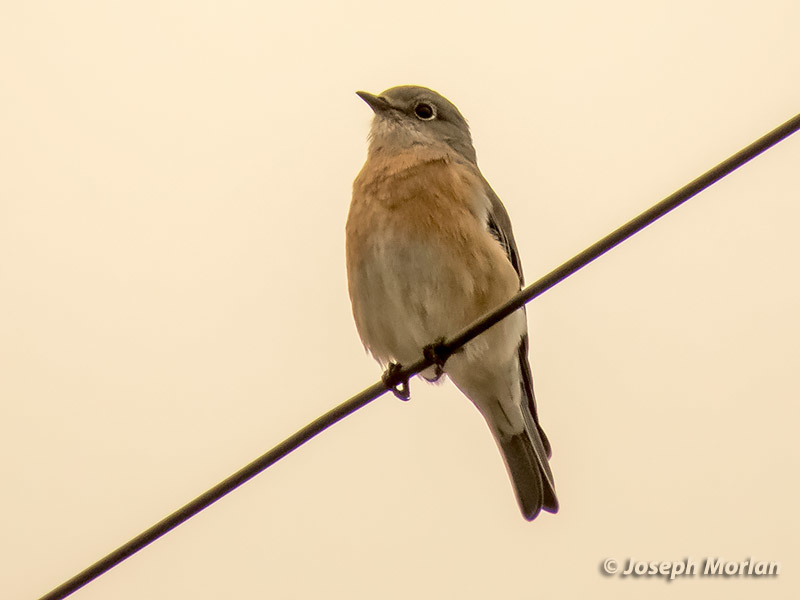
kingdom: Animalia
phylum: Chordata
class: Aves
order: Passeriformes
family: Turdidae
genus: Sialia
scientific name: Sialia mexicana
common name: Western bluebird
